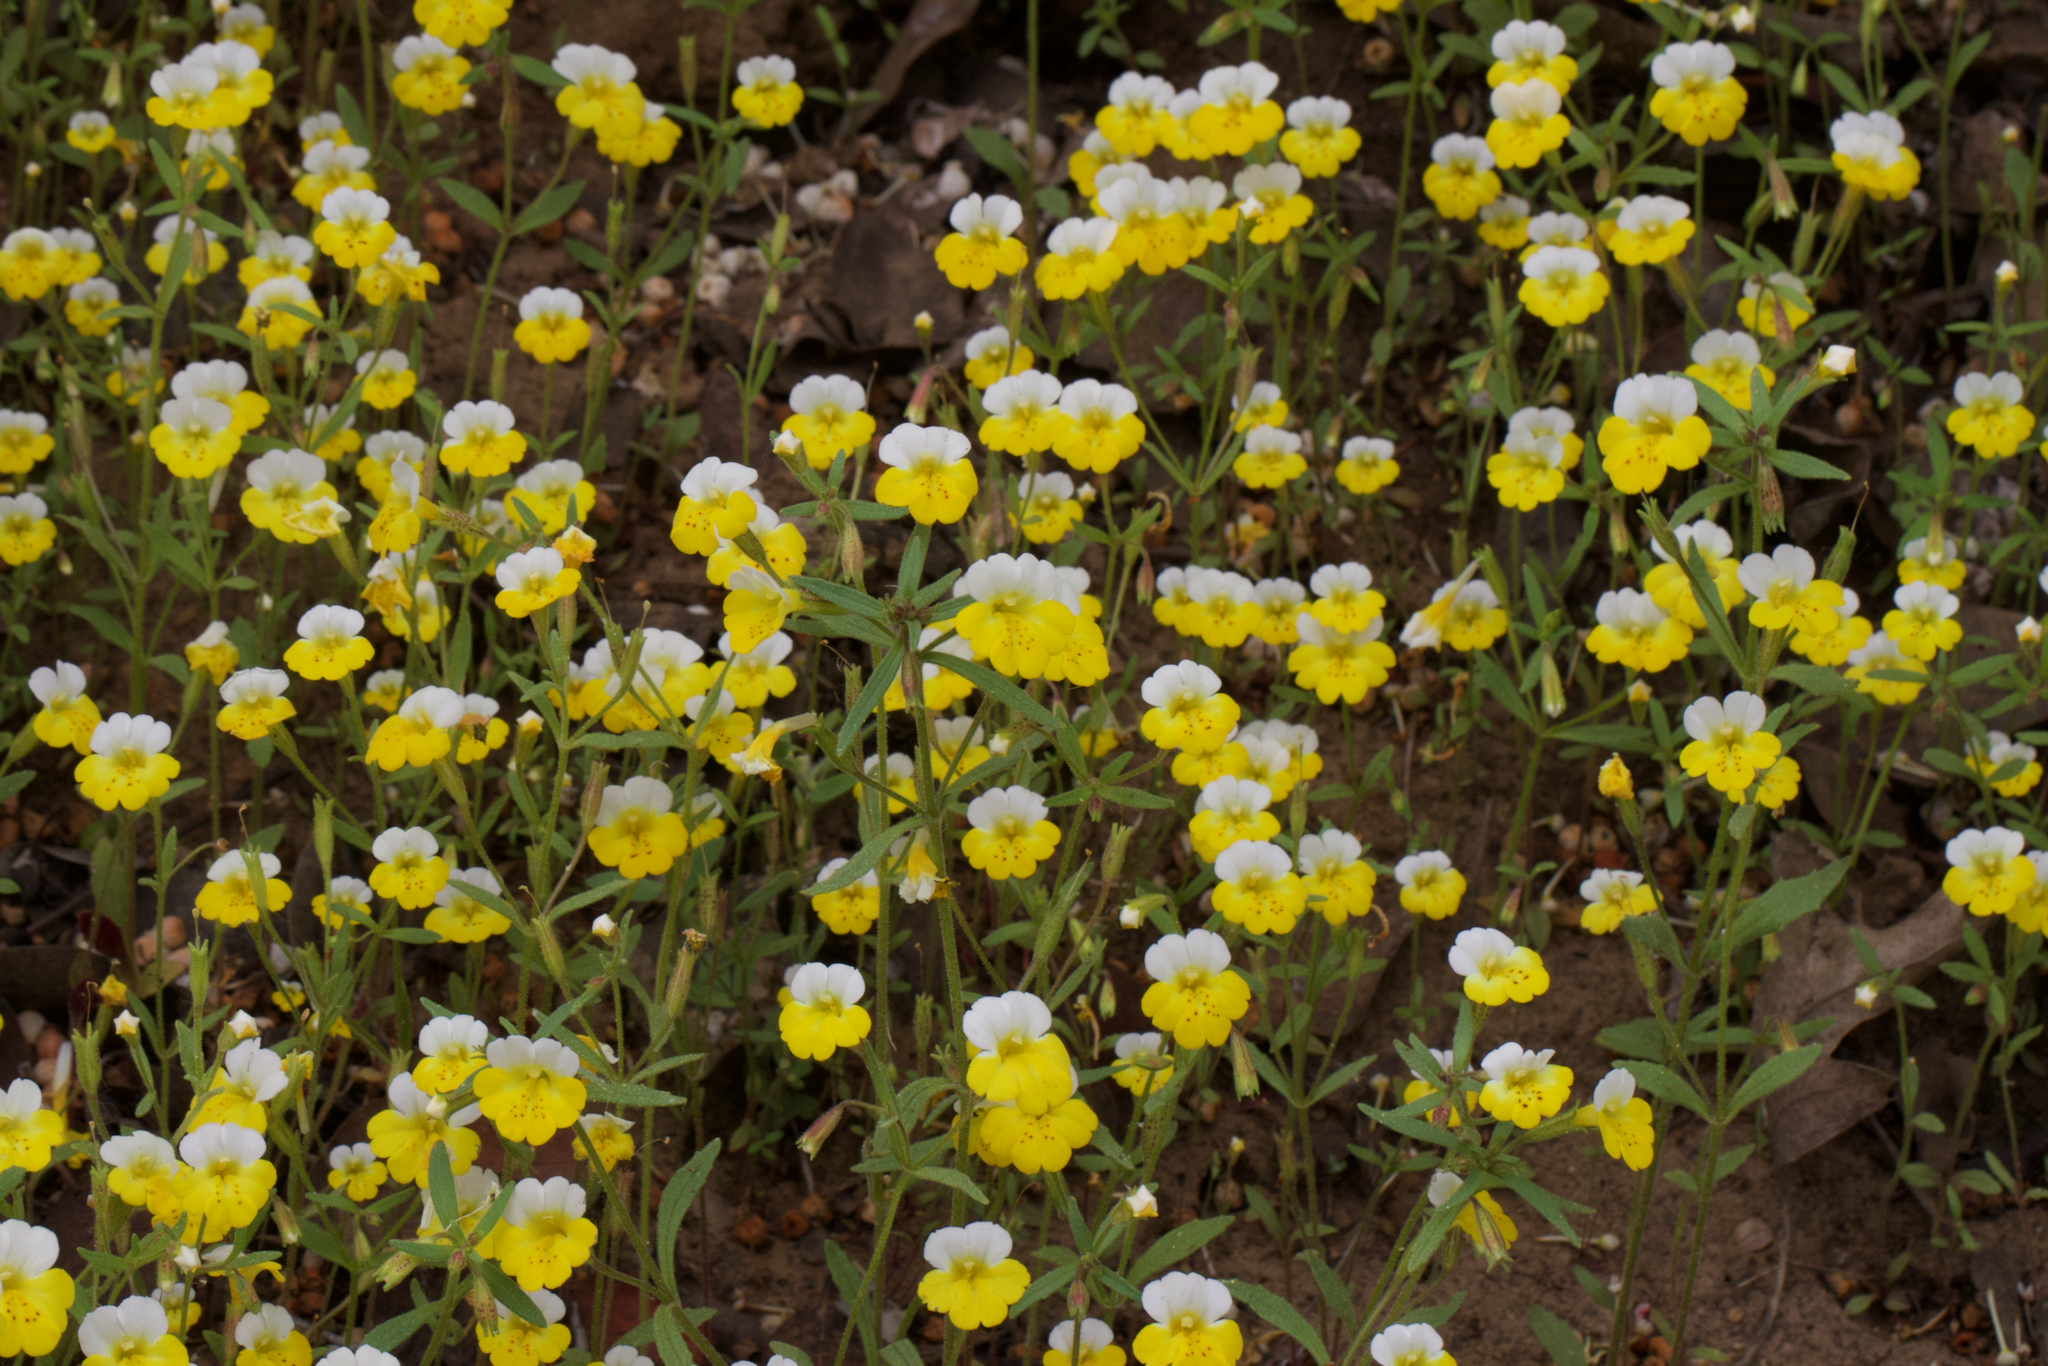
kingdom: Plantae
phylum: Tracheophyta
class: Magnoliopsida
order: Lamiales
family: Phrymaceae
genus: Erythranthe
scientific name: Erythranthe bicolor
